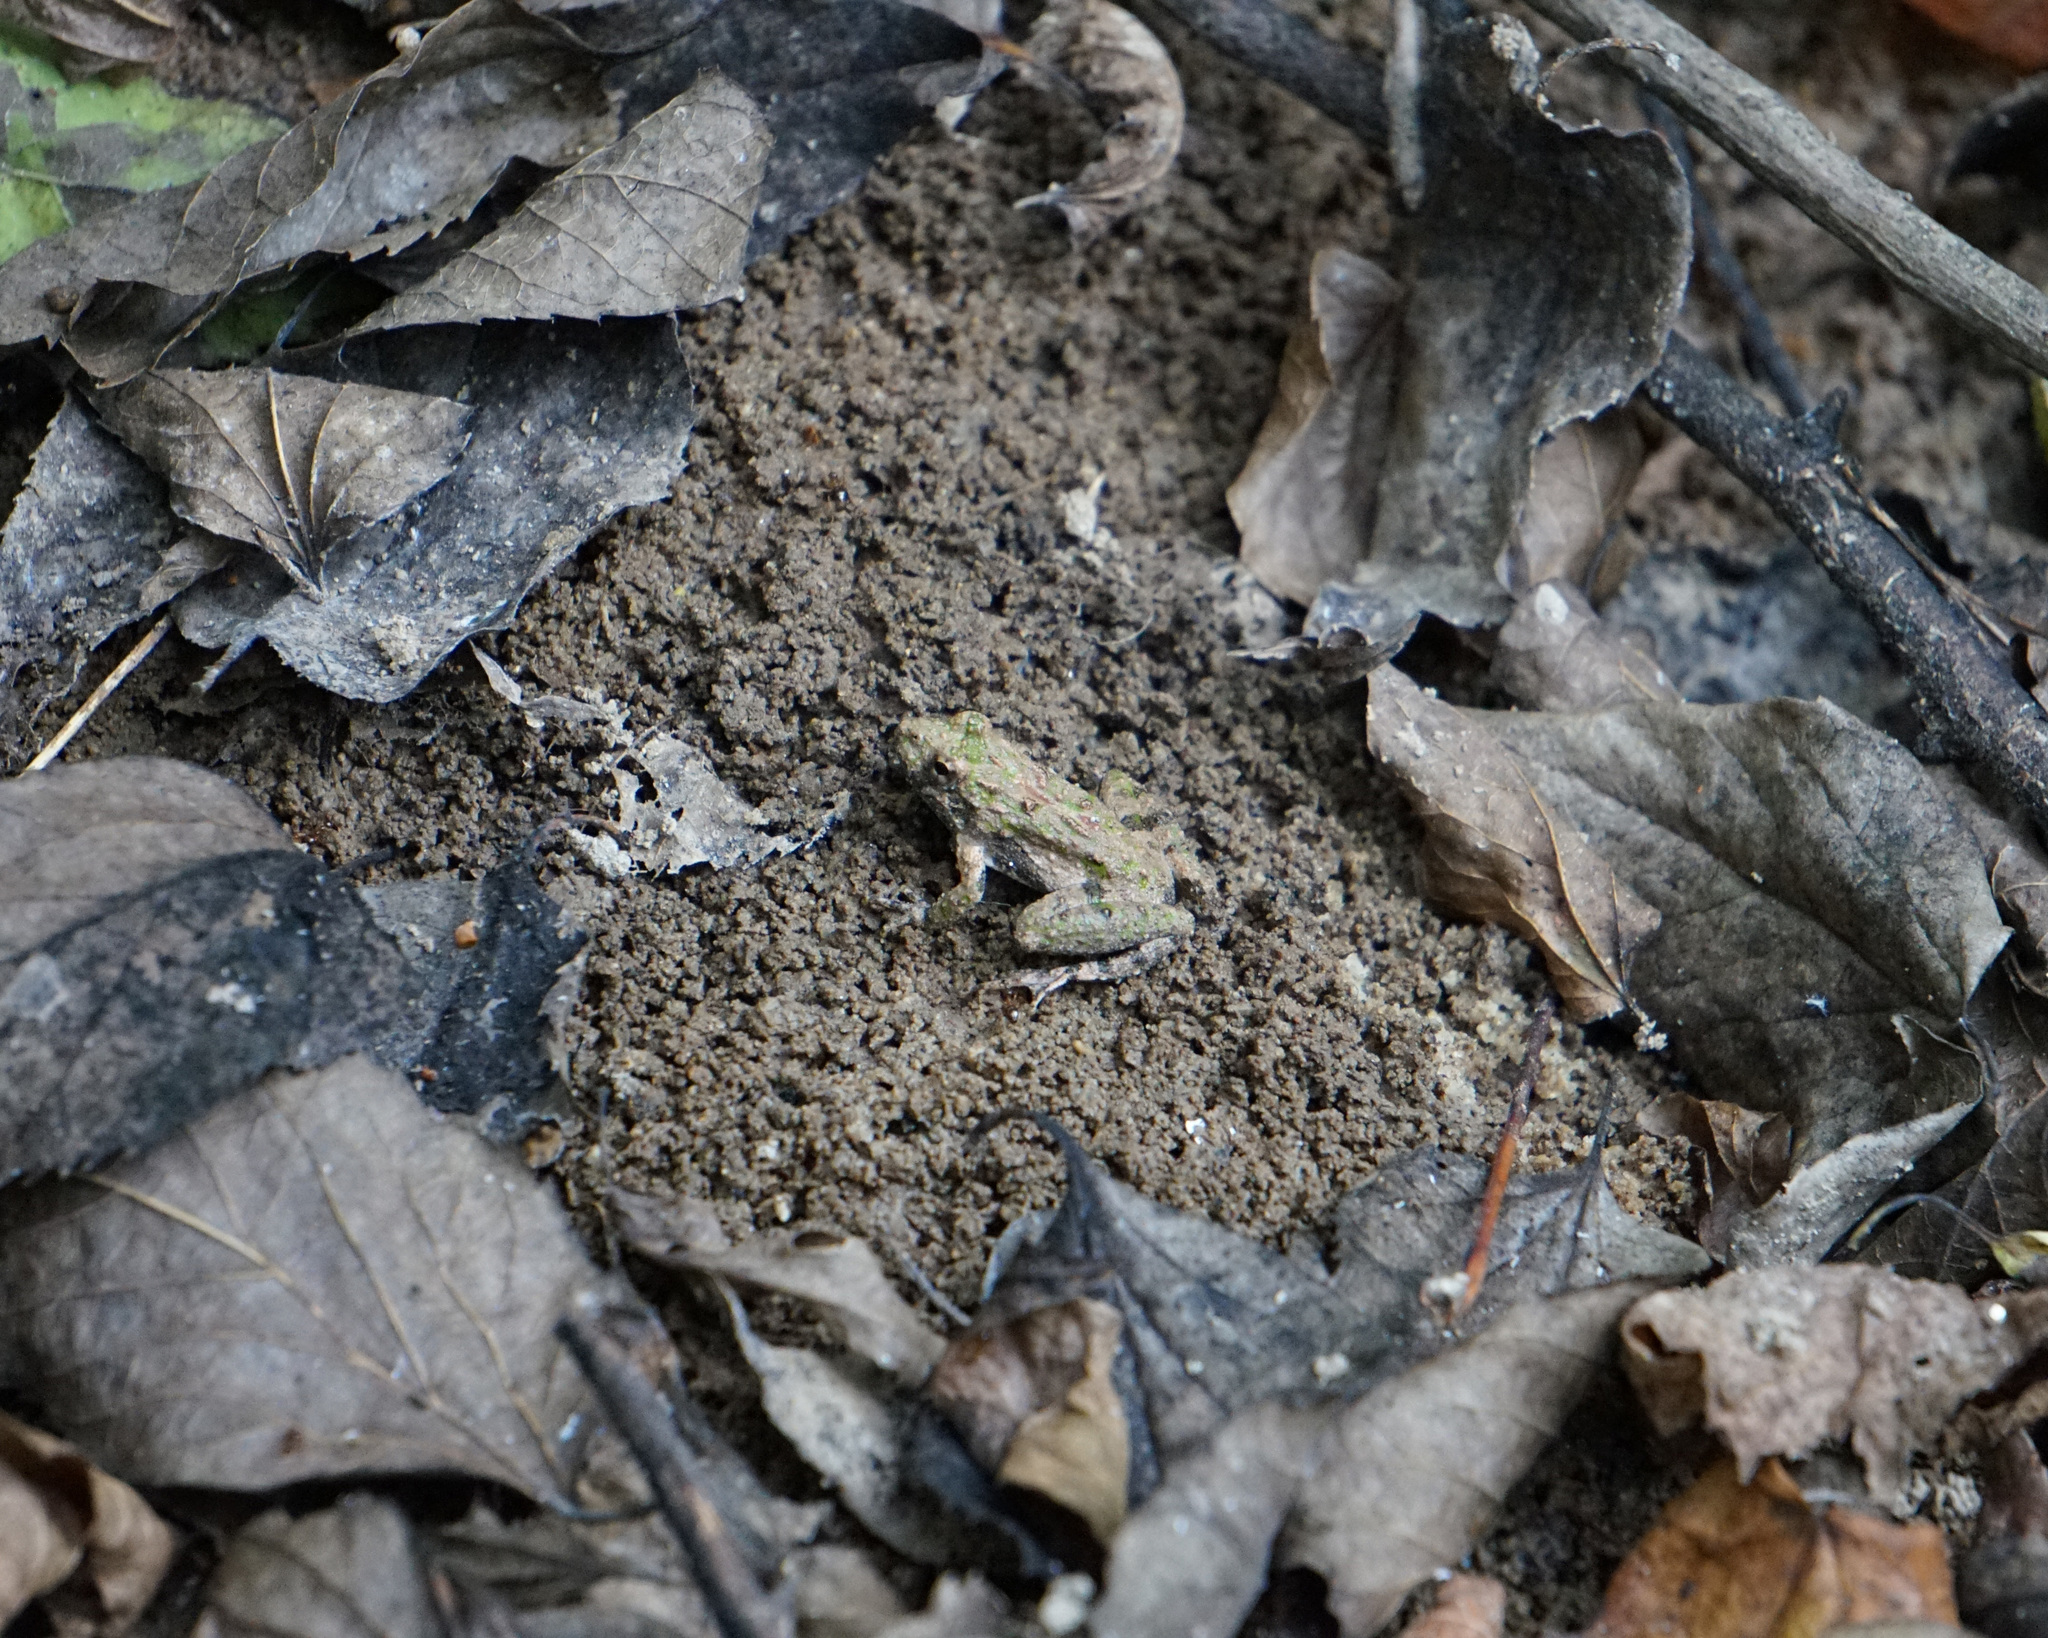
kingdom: Animalia
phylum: Chordata
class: Amphibia
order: Anura
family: Hylidae
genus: Acris
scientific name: Acris crepitans
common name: Northern cricket frog
